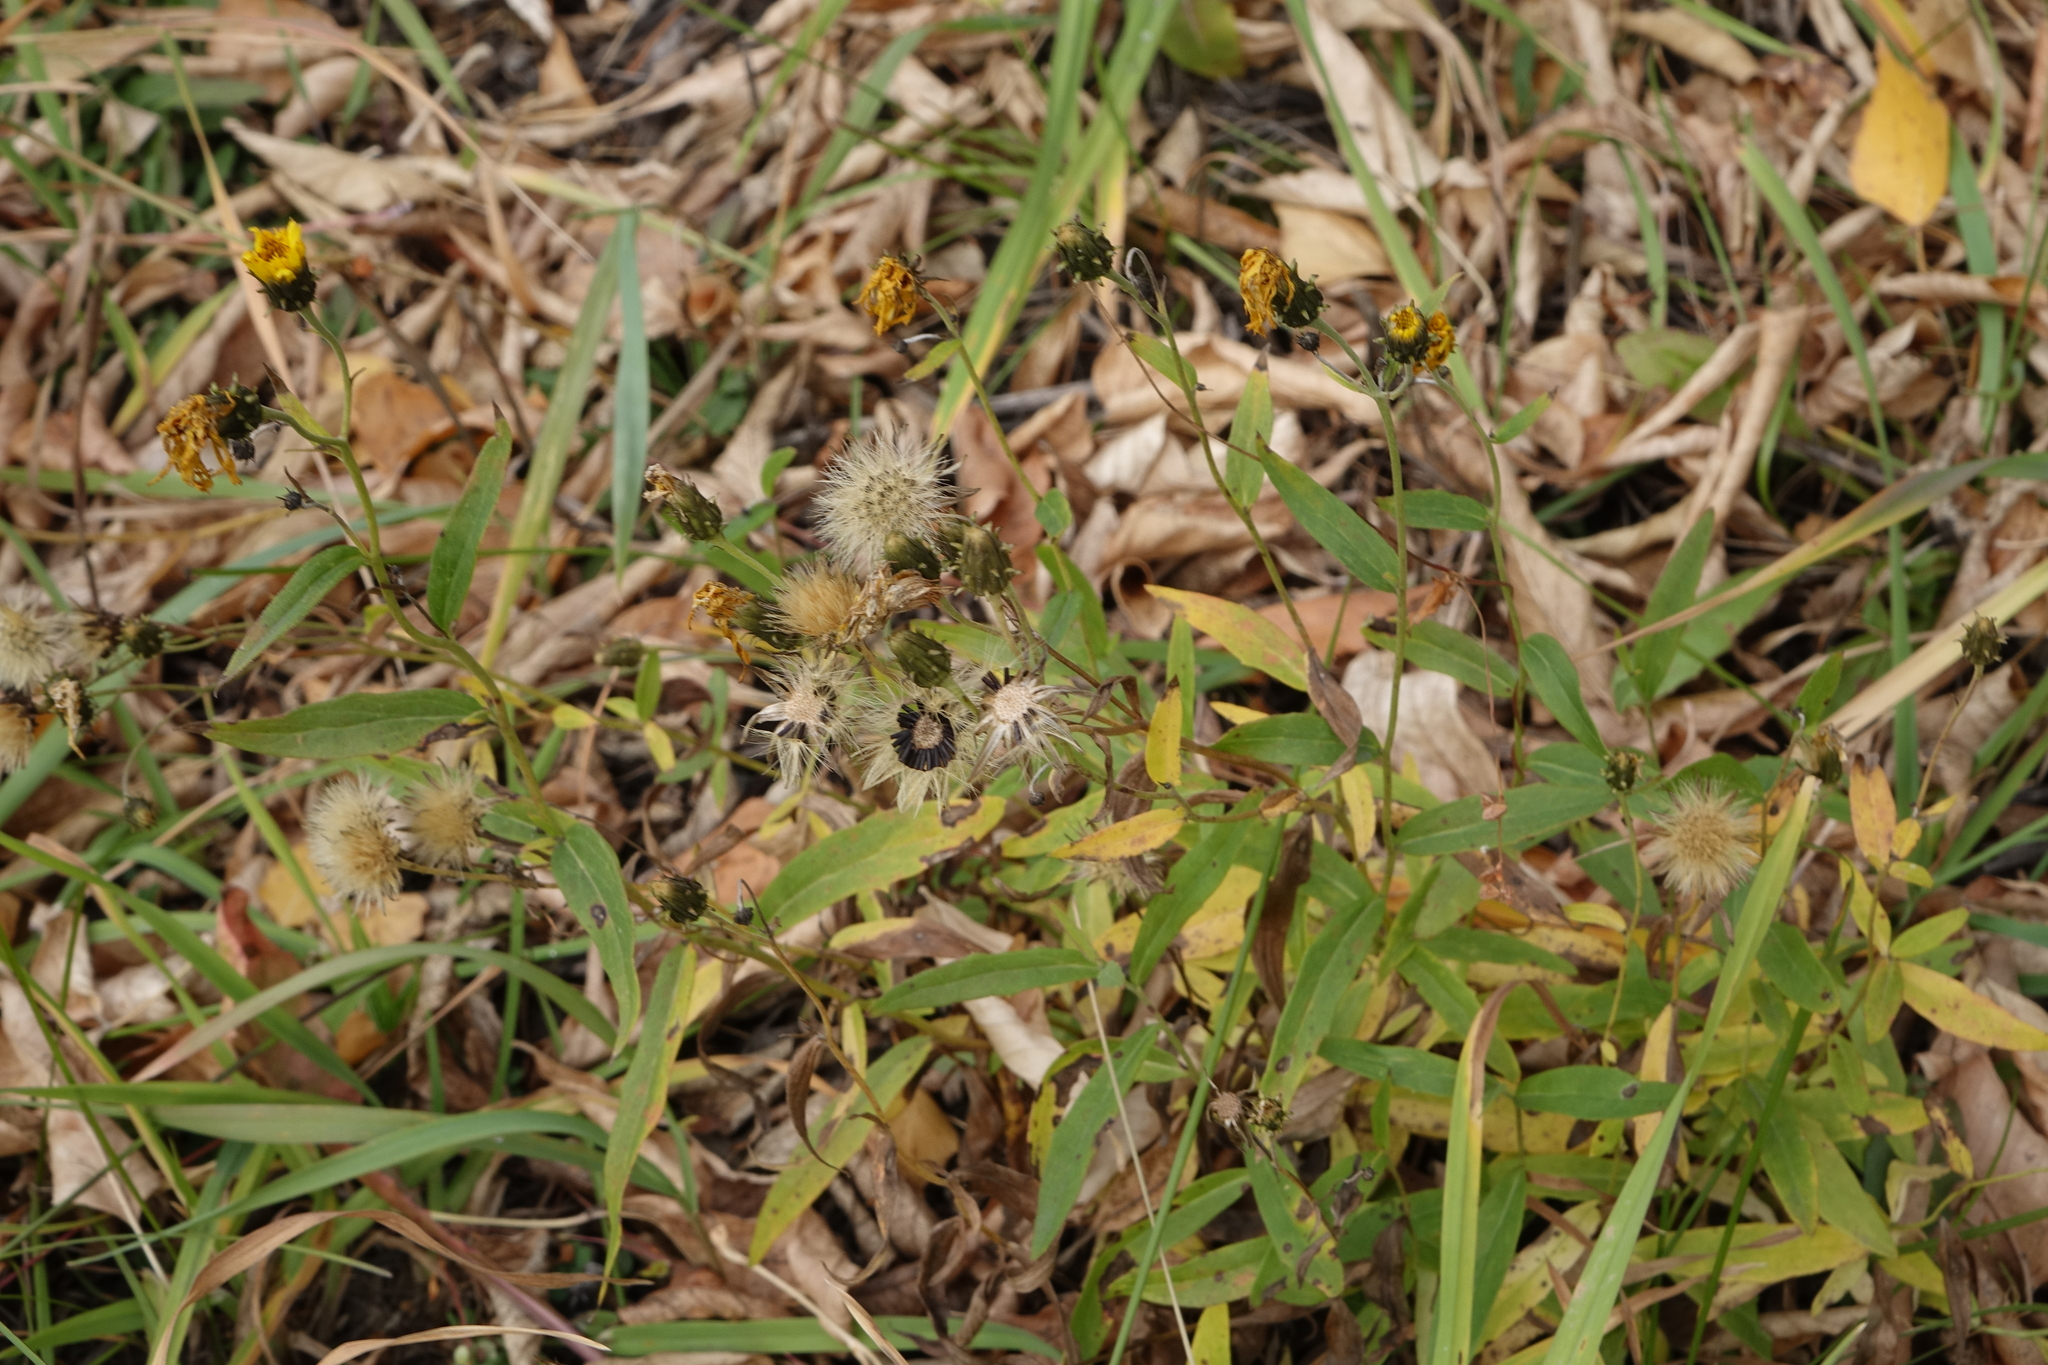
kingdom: Plantae
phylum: Tracheophyta
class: Magnoliopsida
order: Asterales
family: Asteraceae
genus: Hieracium
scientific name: Hieracium umbellatum
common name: Northern hawkweed
